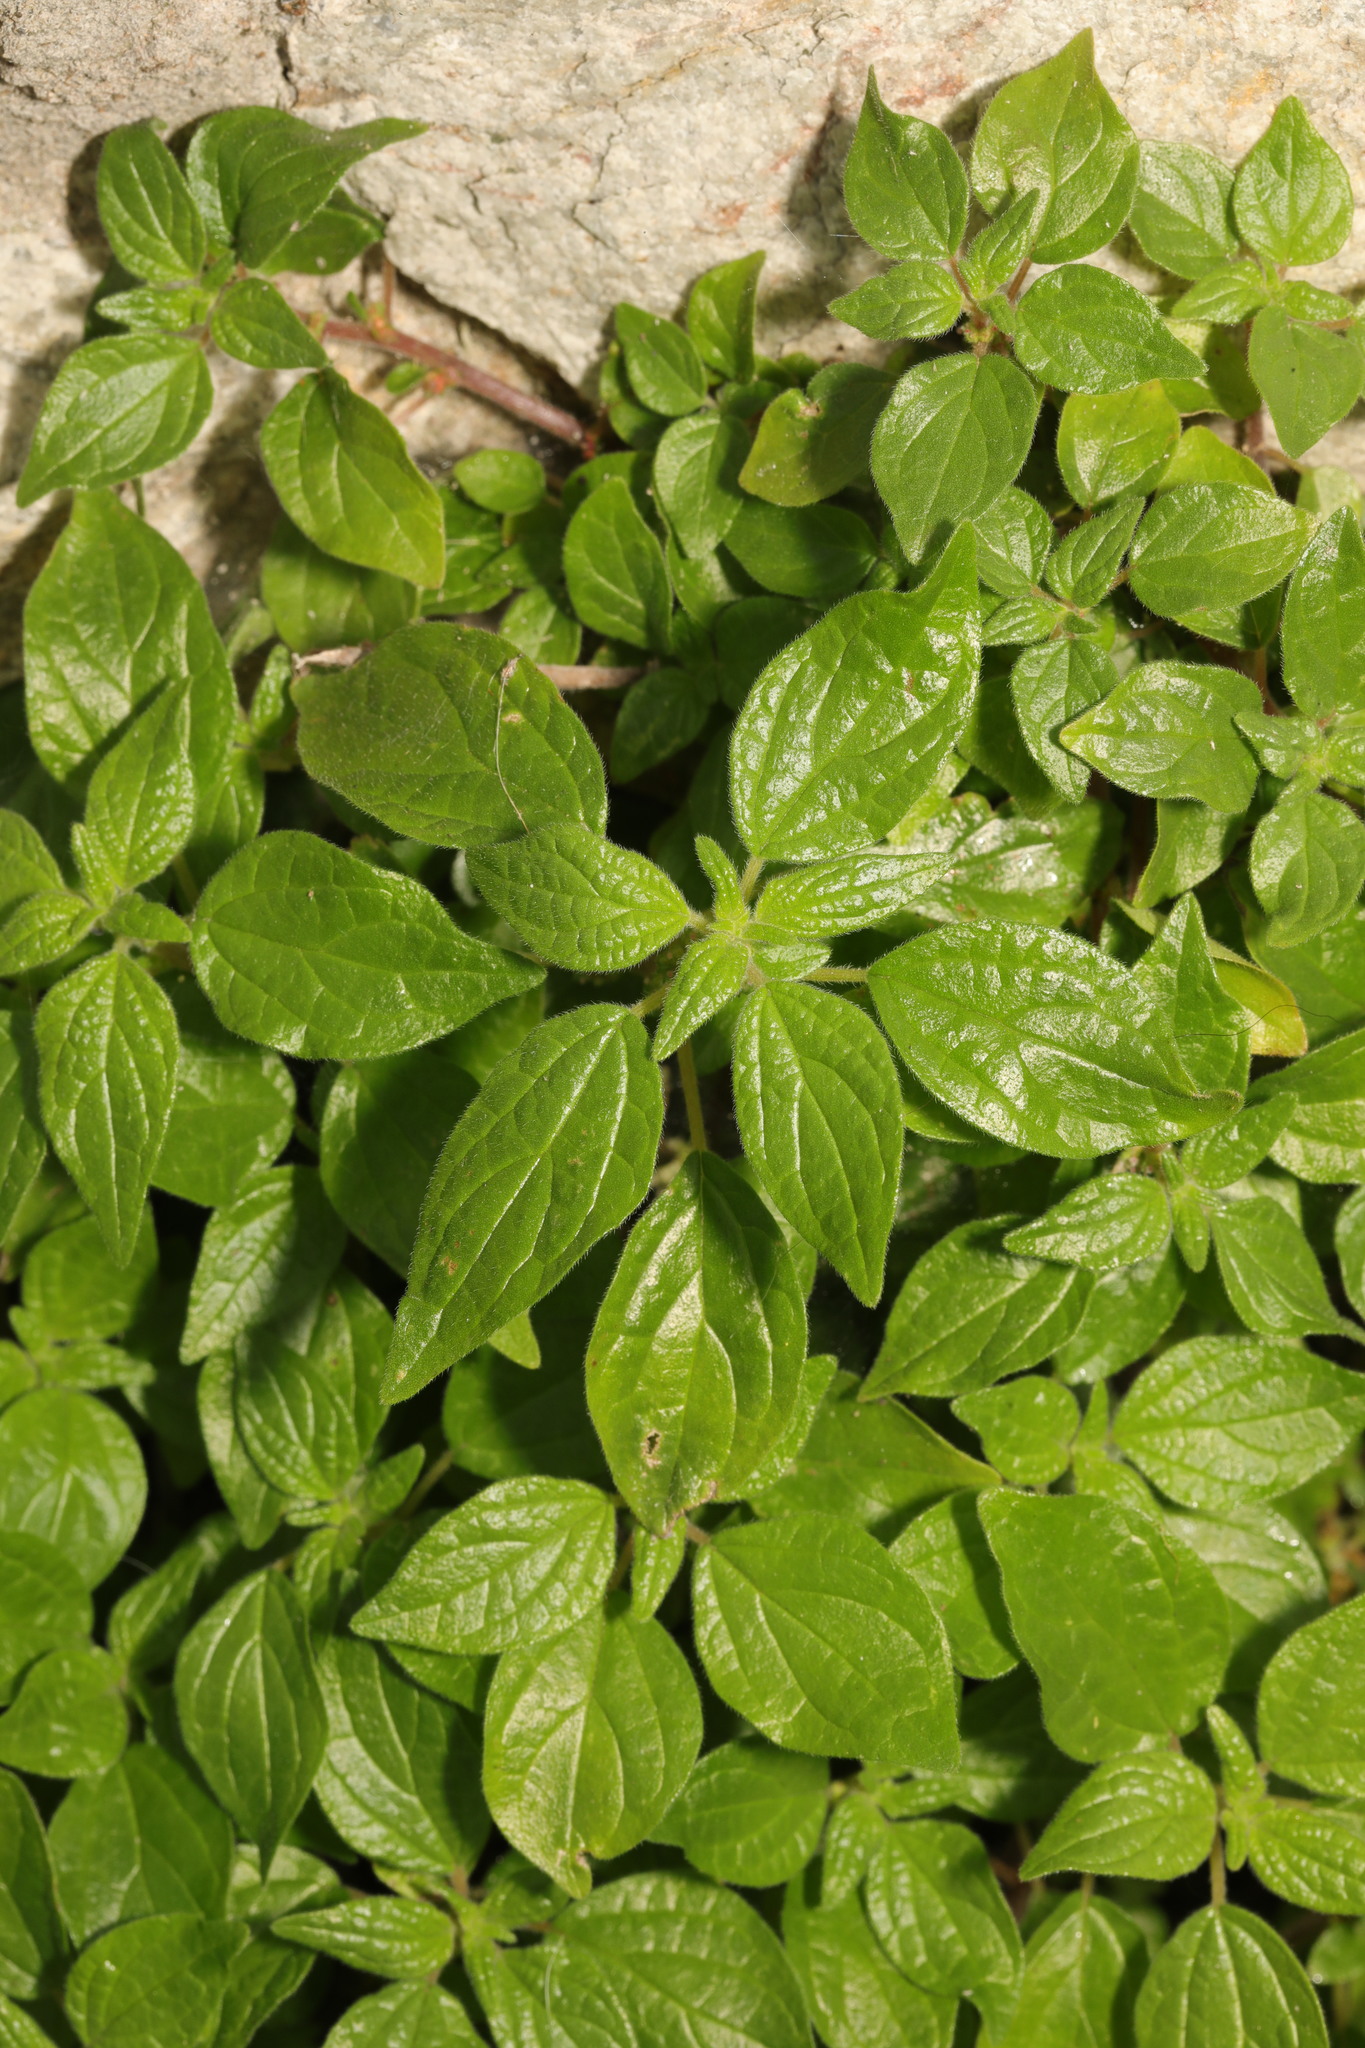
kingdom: Plantae
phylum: Tracheophyta
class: Magnoliopsida
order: Rosales
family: Urticaceae
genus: Parietaria
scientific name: Parietaria judaica
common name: Pellitory-of-the-wall
